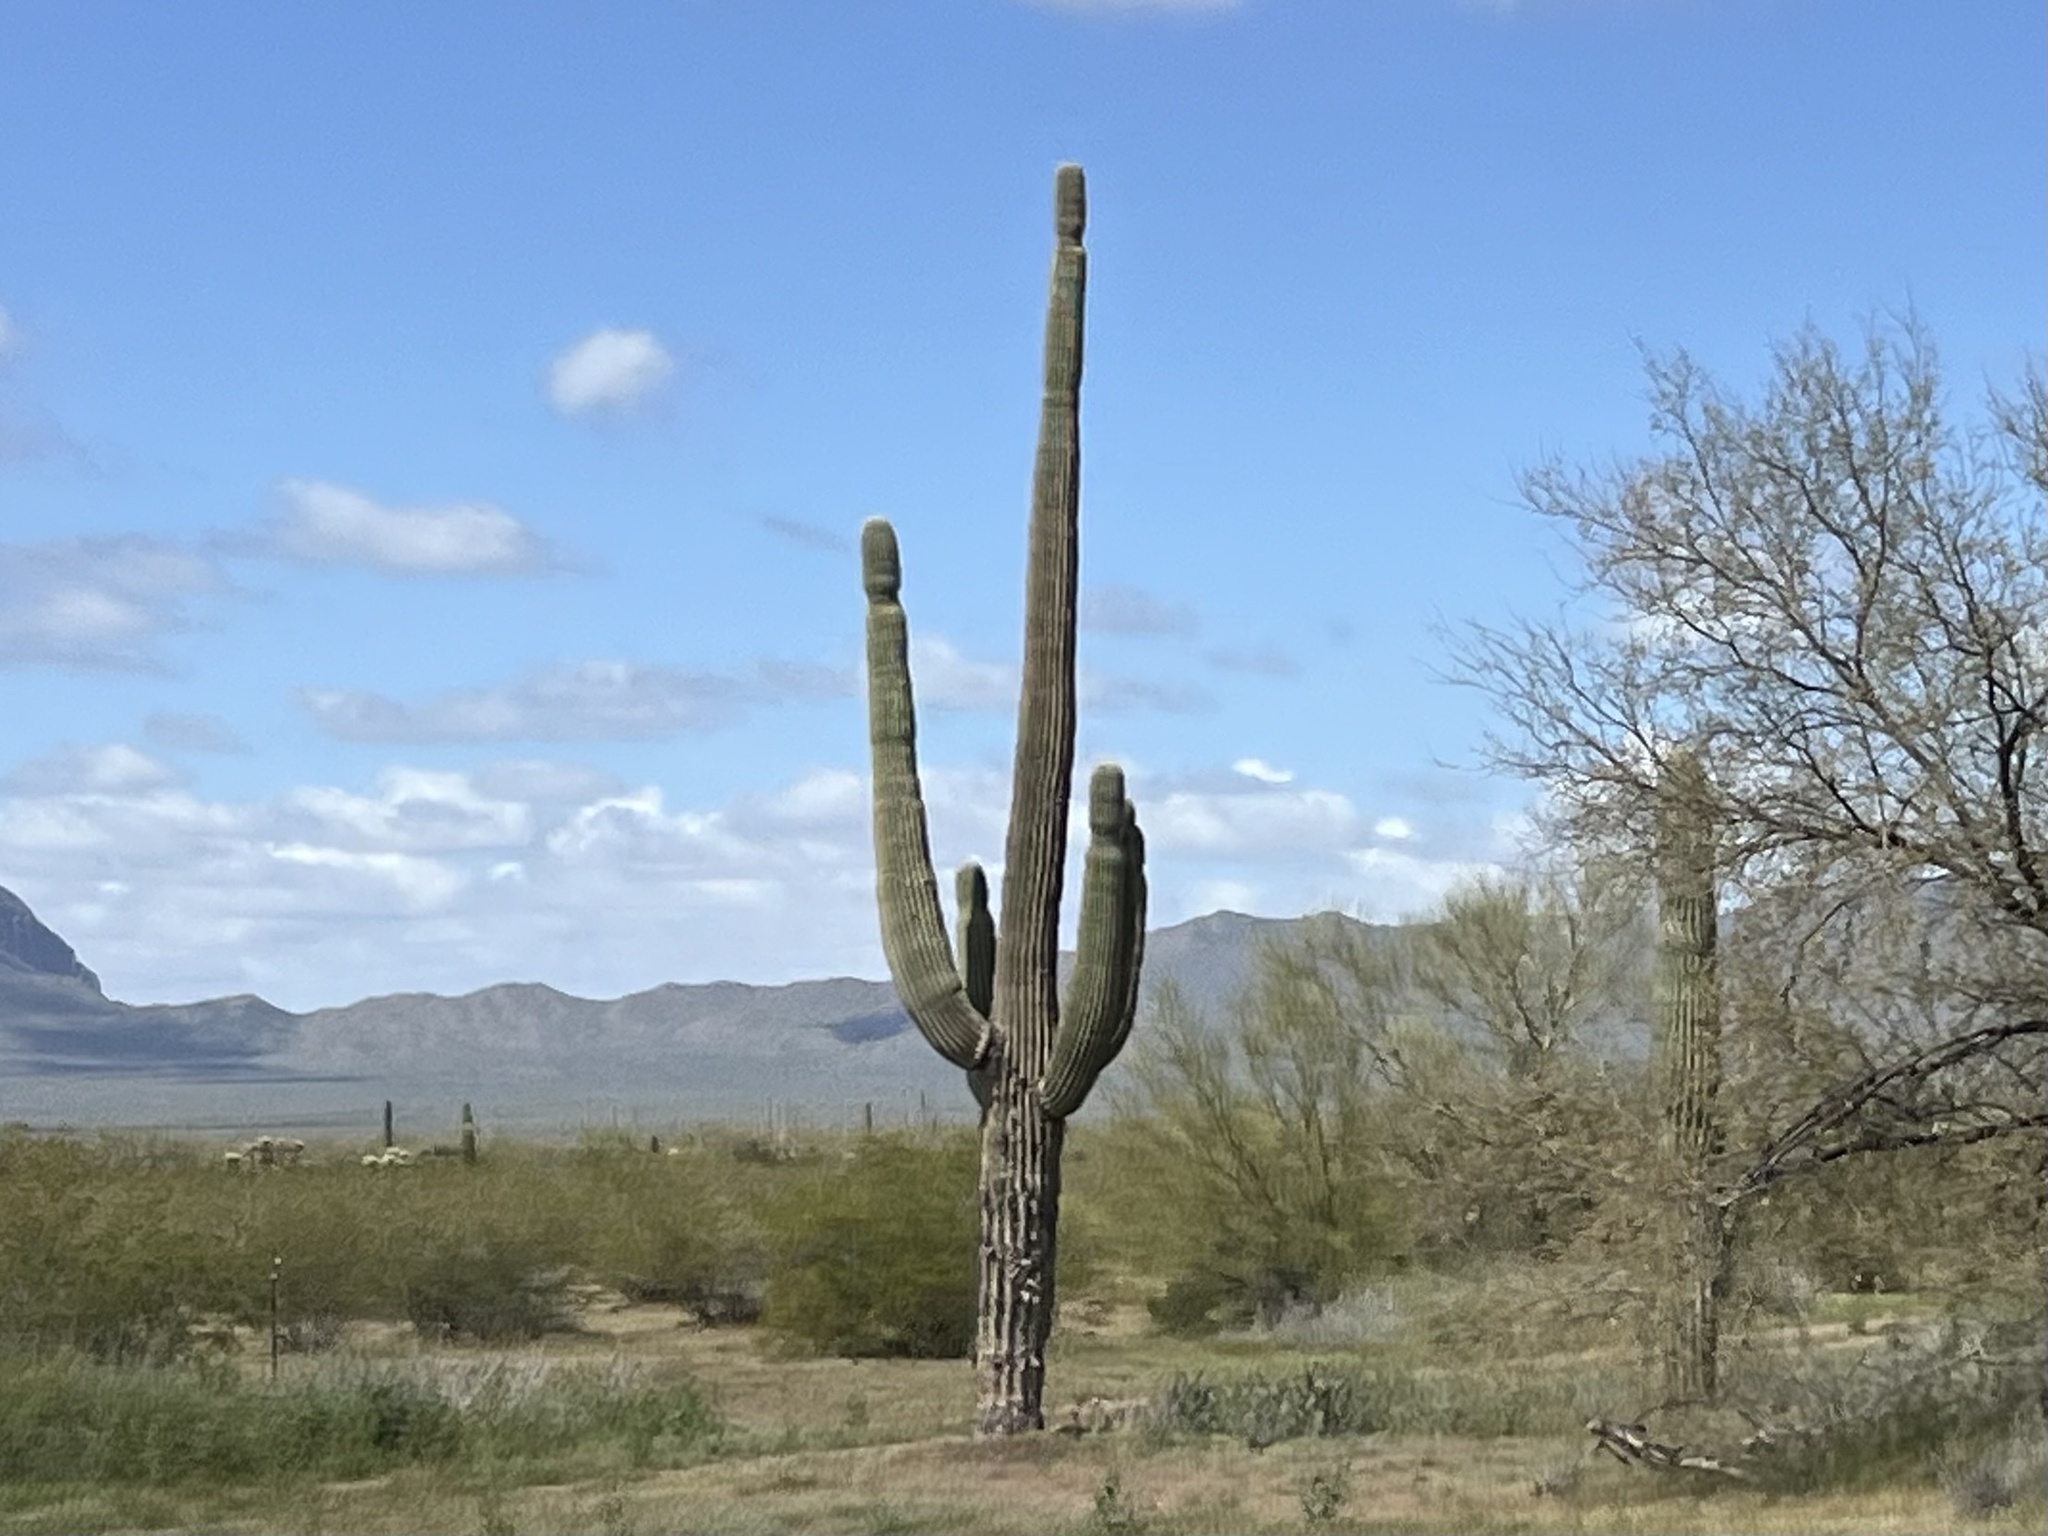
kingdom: Plantae
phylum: Tracheophyta
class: Magnoliopsida
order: Caryophyllales
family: Cactaceae
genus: Carnegiea
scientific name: Carnegiea gigantea
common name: Saguaro
